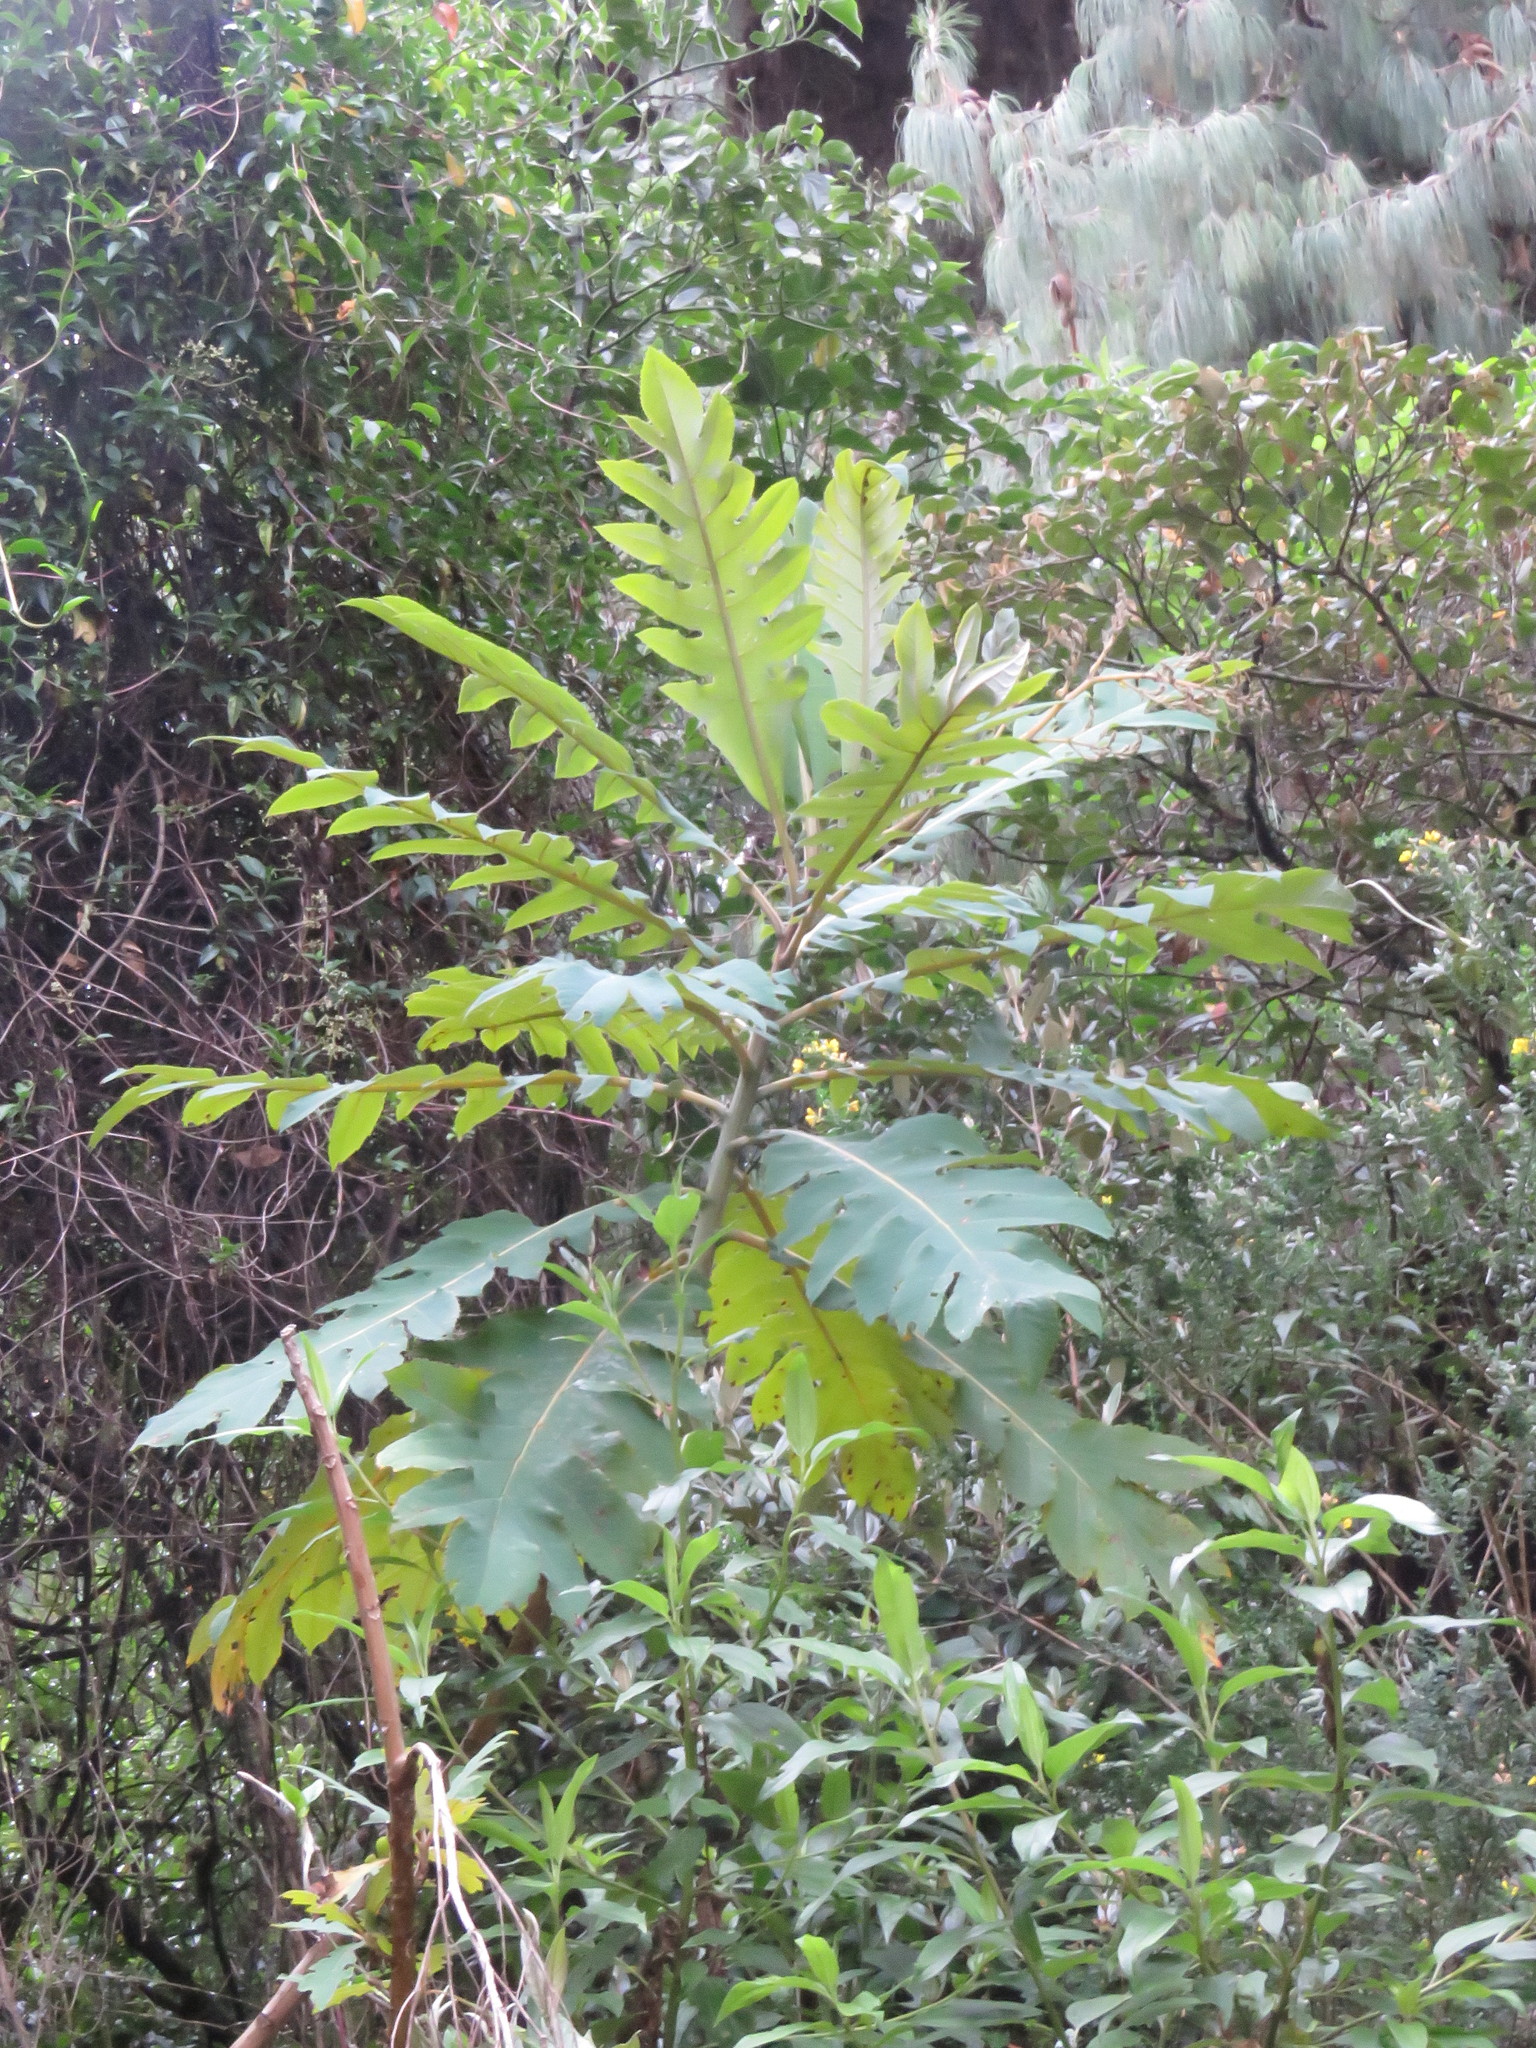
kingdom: Plantae
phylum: Tracheophyta
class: Magnoliopsida
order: Ranunculales
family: Papaveraceae
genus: Bocconia
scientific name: Bocconia frutescens
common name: Tree poppy
